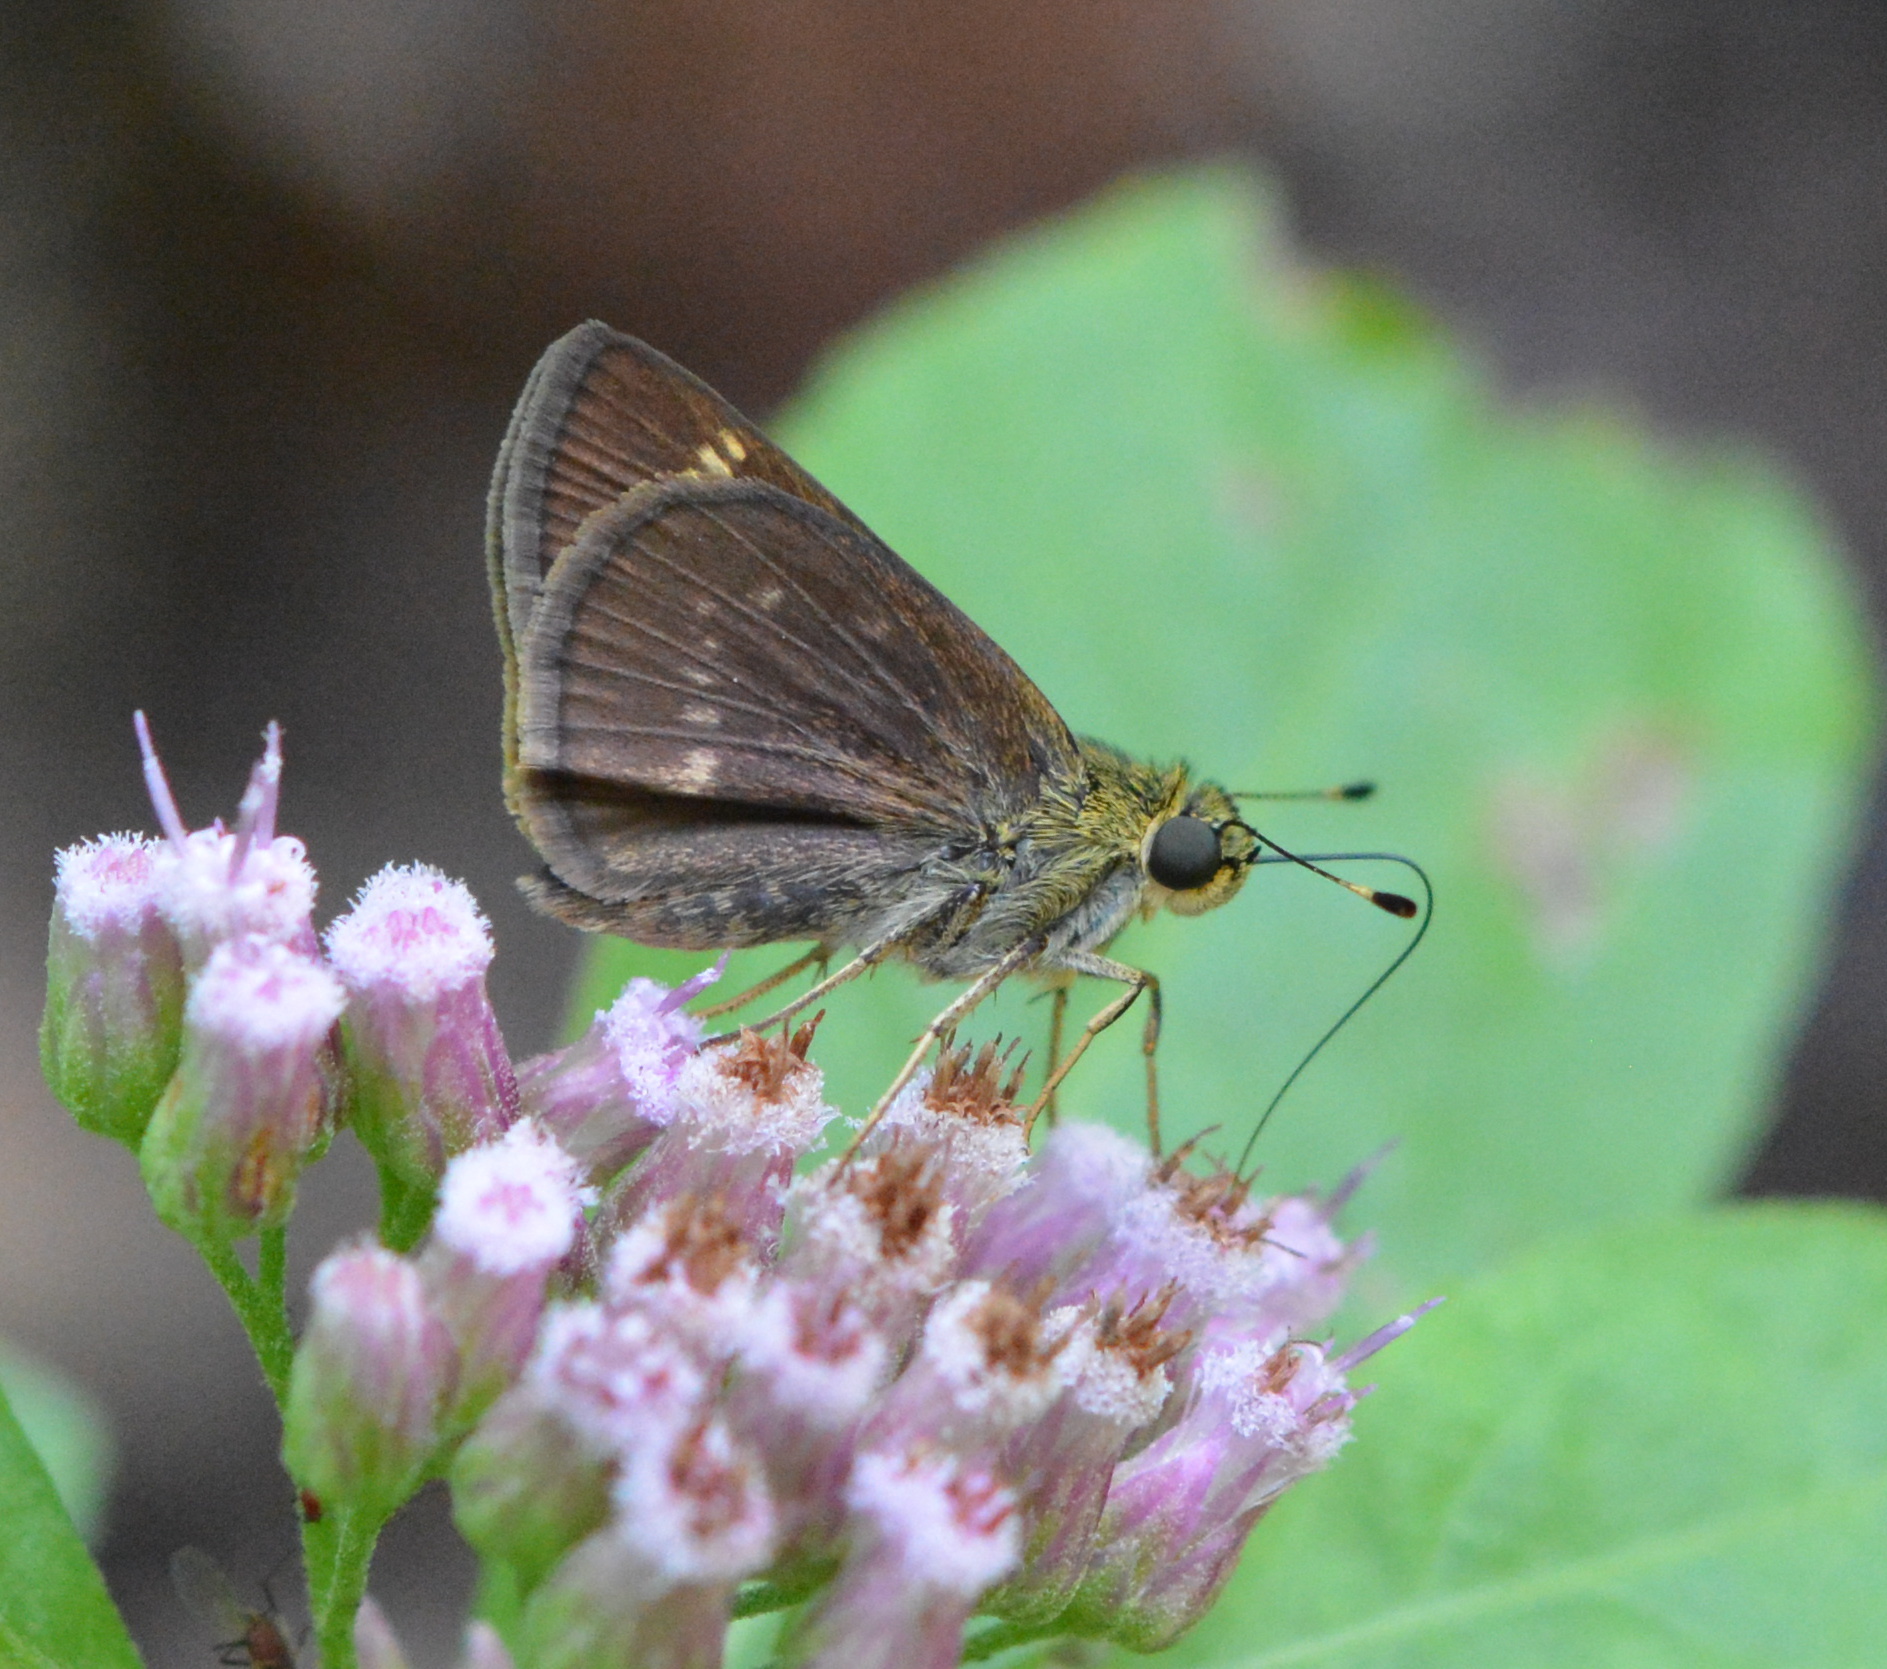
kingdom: Animalia
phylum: Arthropoda
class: Insecta
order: Lepidoptera
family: Hesperiidae
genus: Vernia
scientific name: Vernia verna
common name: Little glassywing
